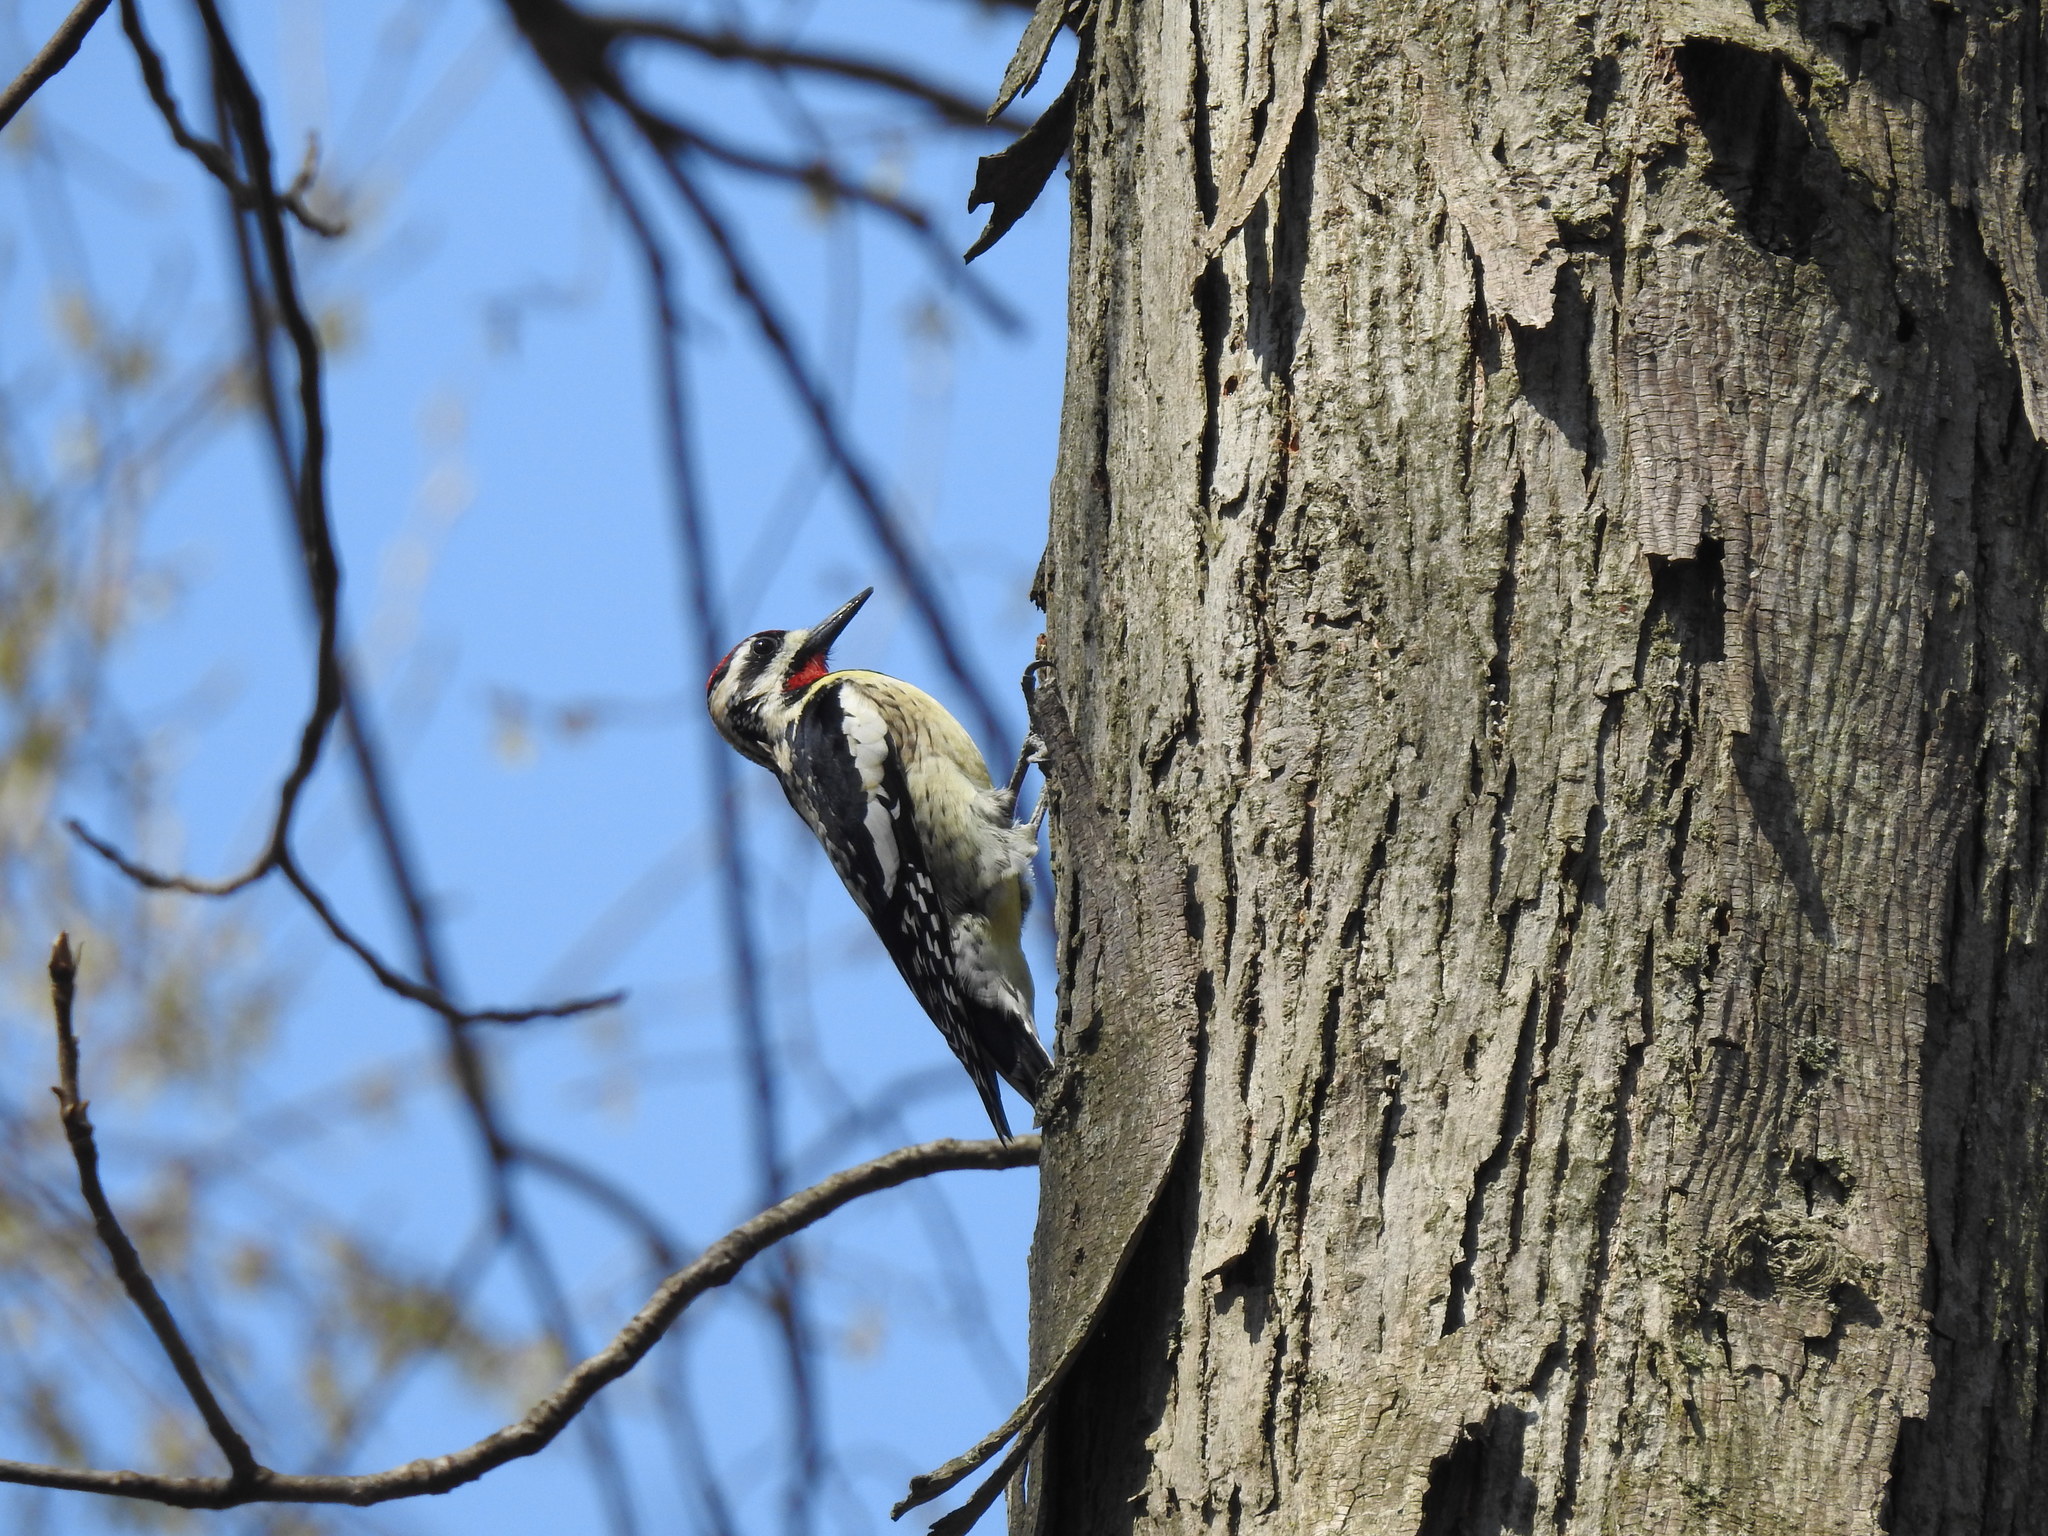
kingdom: Animalia
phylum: Chordata
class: Aves
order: Piciformes
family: Picidae
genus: Sphyrapicus
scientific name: Sphyrapicus varius
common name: Yellow-bellied sapsucker
